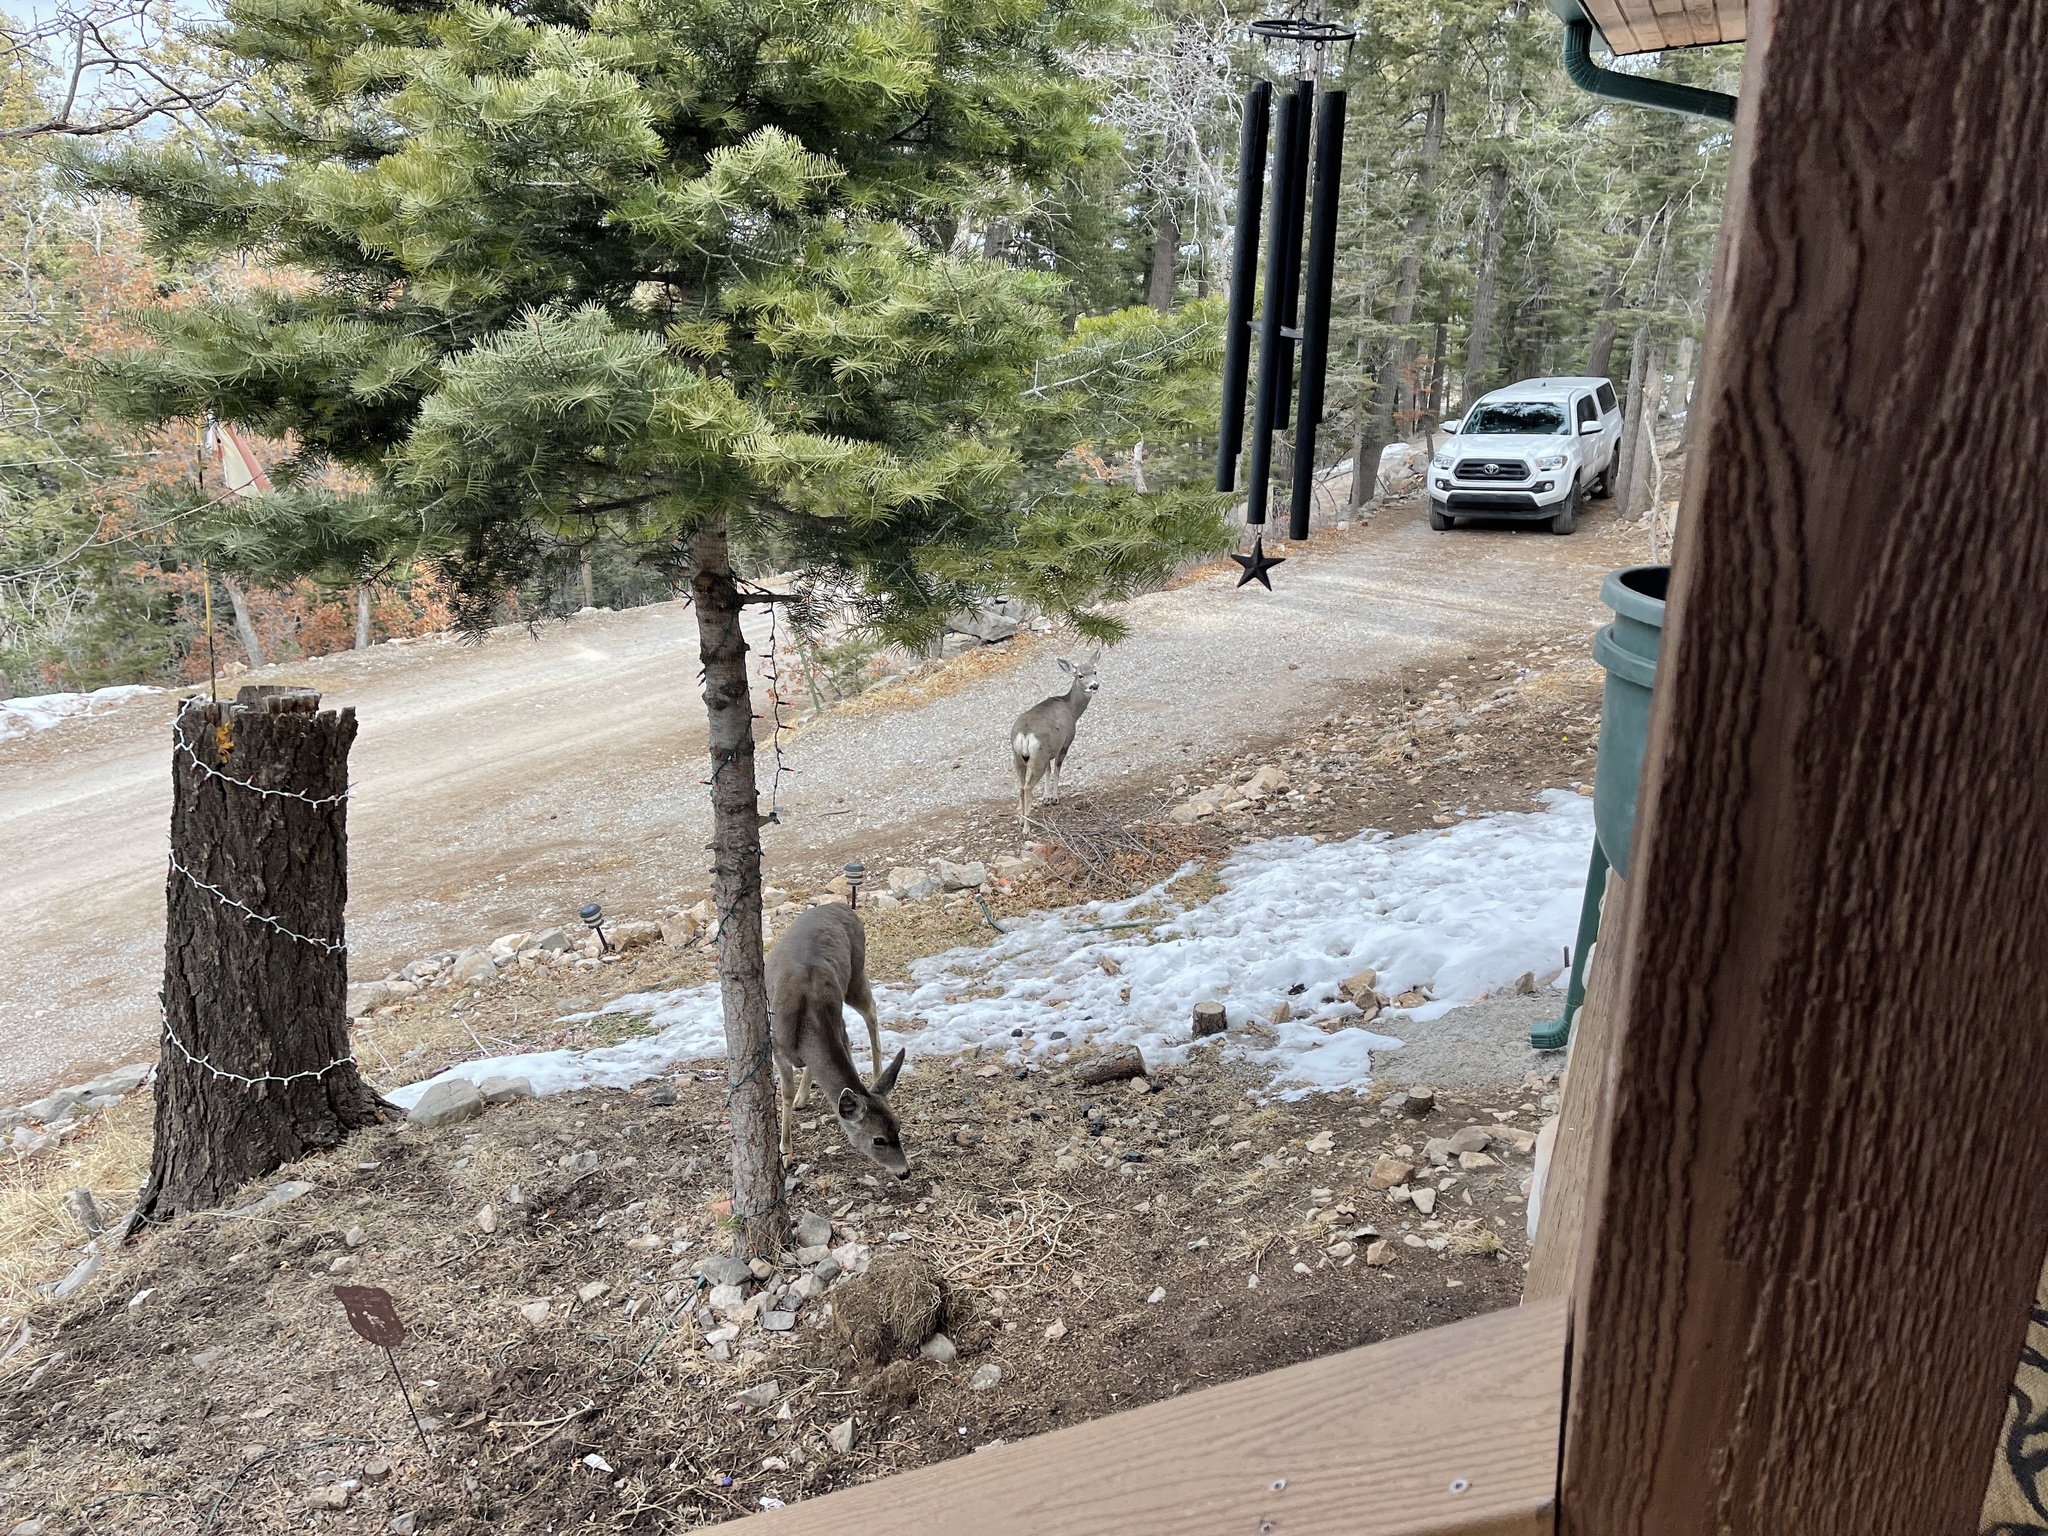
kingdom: Animalia
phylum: Chordata
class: Mammalia
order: Artiodactyla
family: Cervidae
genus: Odocoileus
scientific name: Odocoileus hemionus
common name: Mule deer
